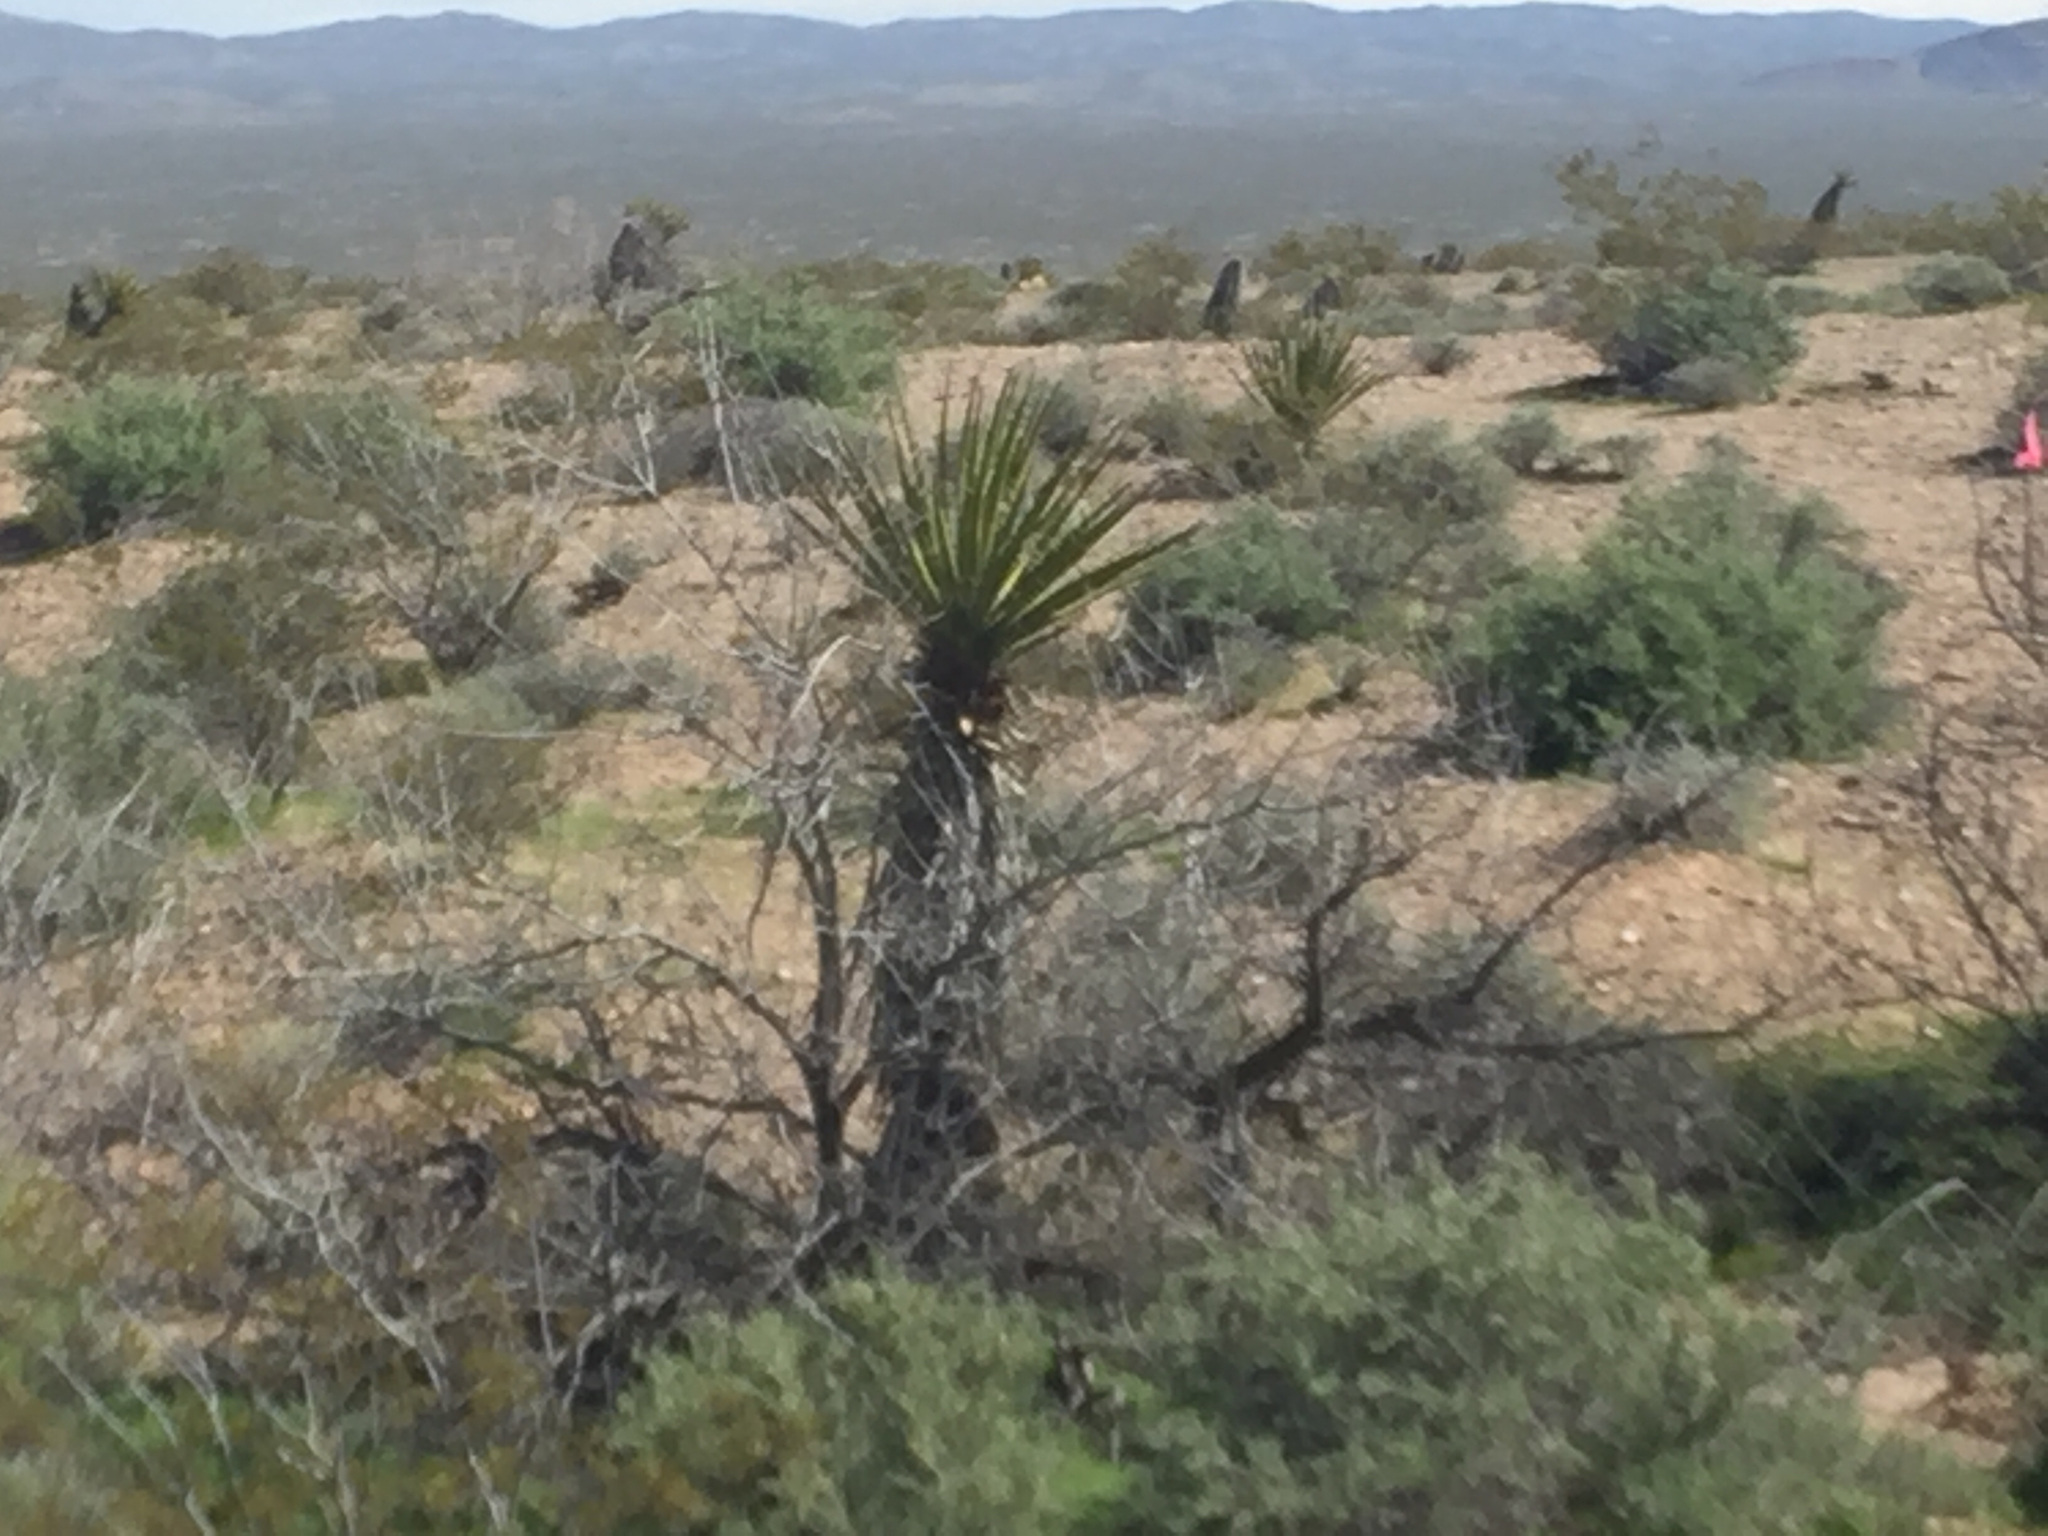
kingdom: Plantae
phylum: Tracheophyta
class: Liliopsida
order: Asparagales
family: Asparagaceae
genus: Yucca
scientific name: Yucca schidigera
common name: Mojave yucca
